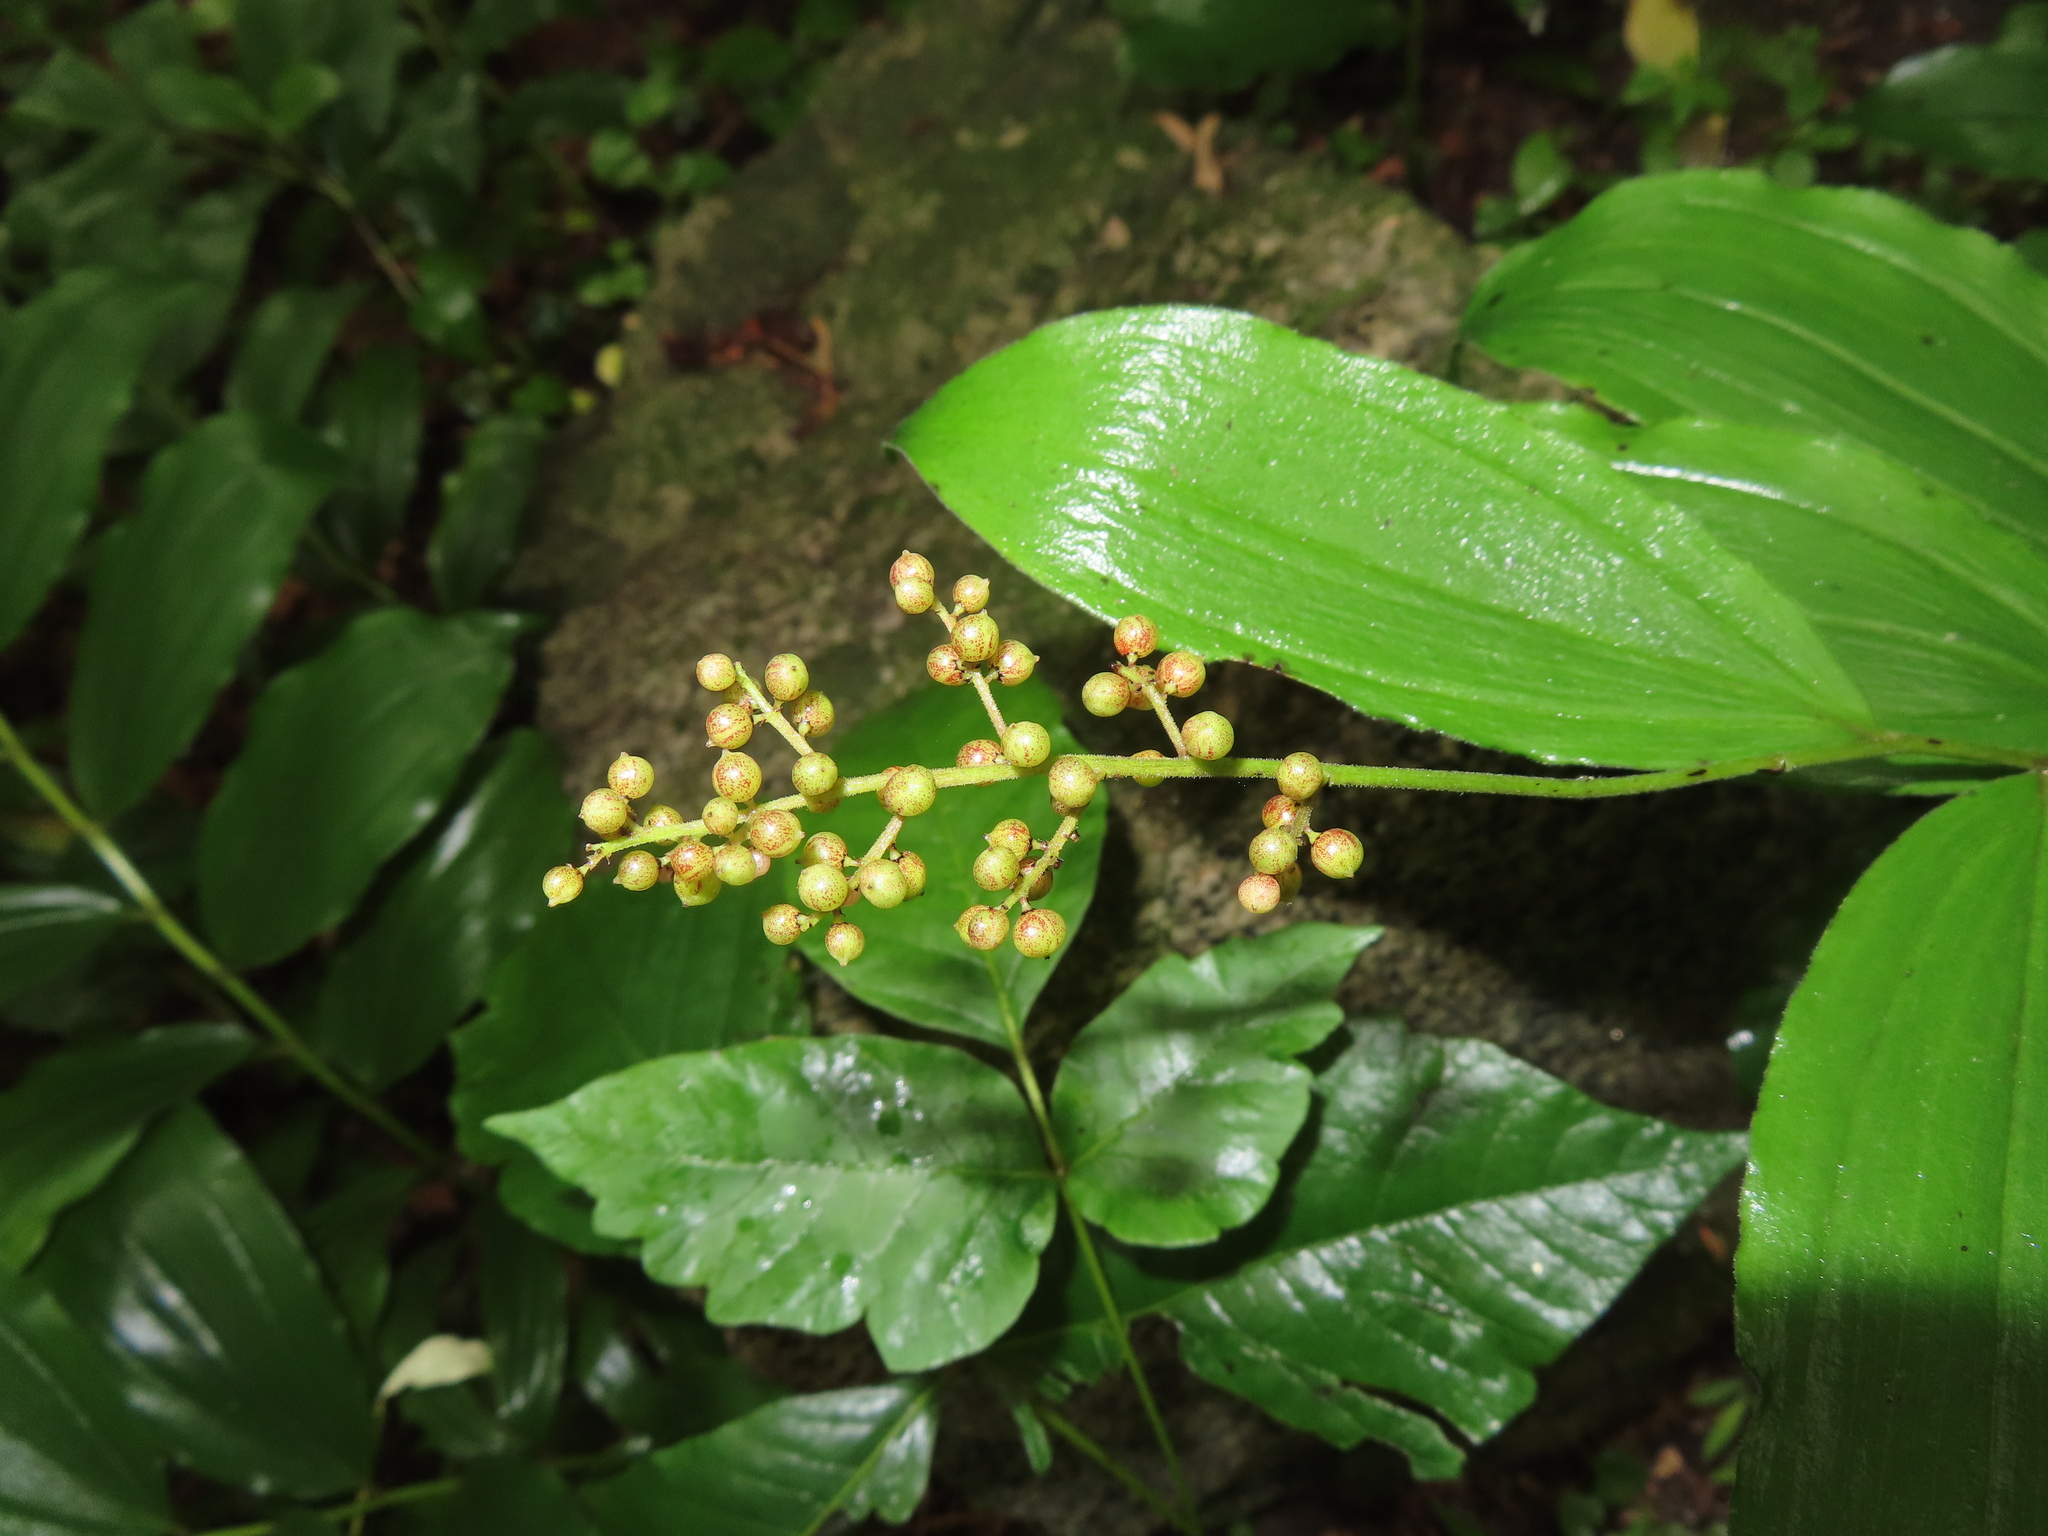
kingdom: Plantae
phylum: Tracheophyta
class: Liliopsida
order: Asparagales
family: Asparagaceae
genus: Maianthemum
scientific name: Maianthemum racemosum
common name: False spikenard
